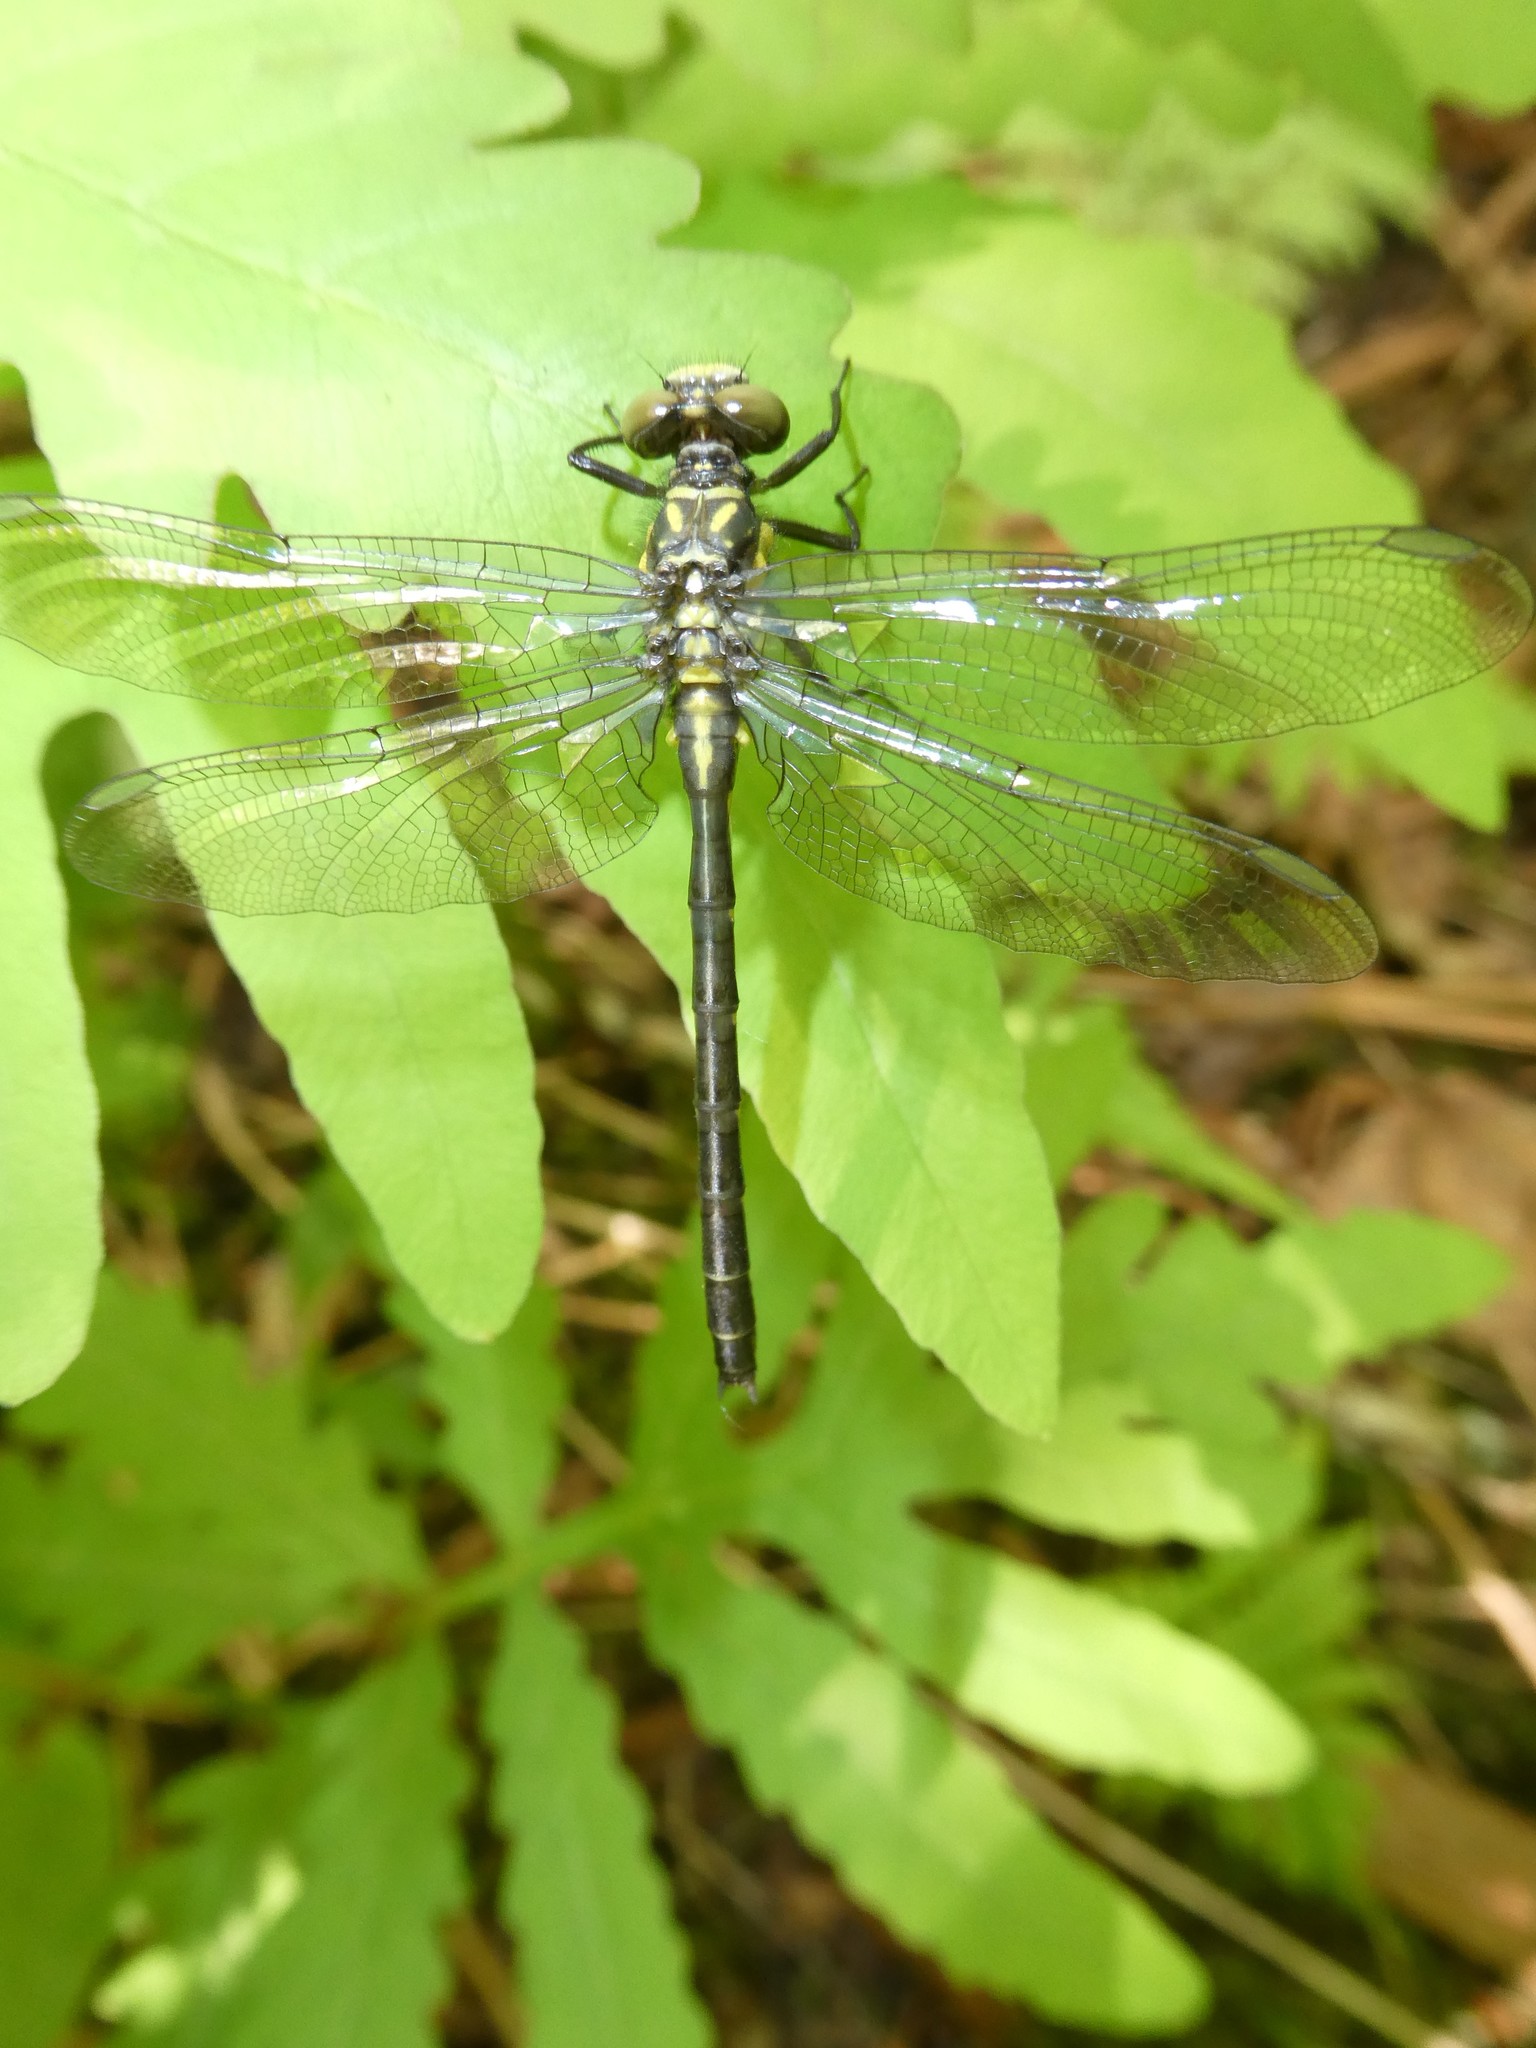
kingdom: Animalia
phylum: Arthropoda
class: Insecta
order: Odonata
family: Gomphidae
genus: Lanthus
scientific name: Lanthus parvulus
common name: Northern pygmy clubtail
